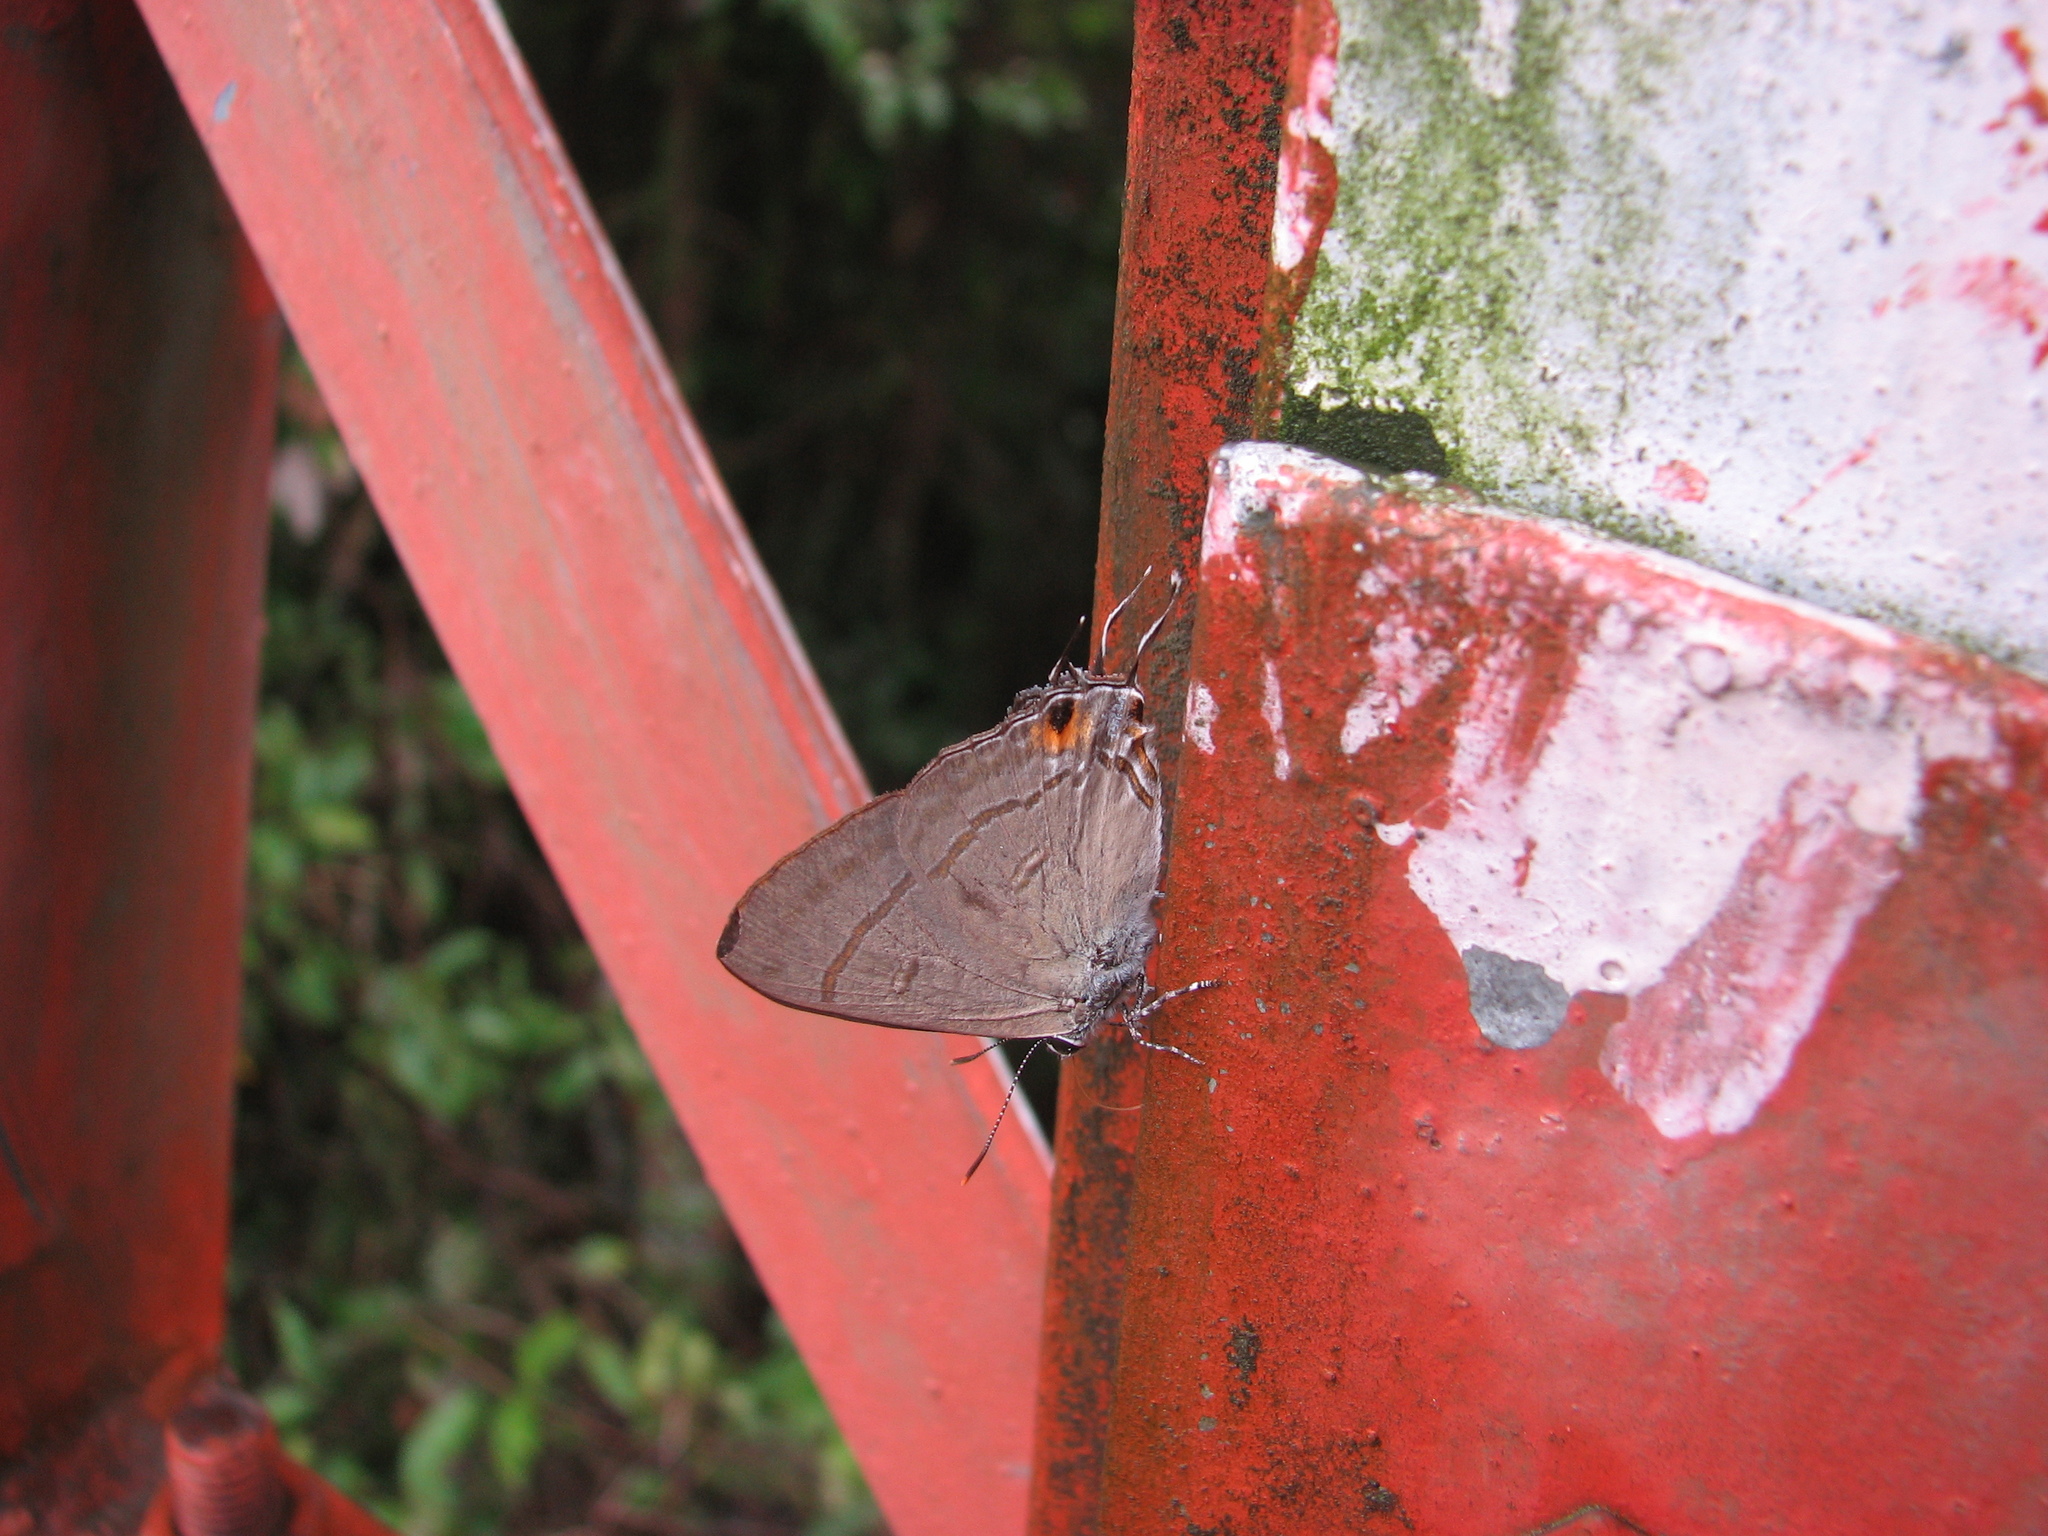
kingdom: Animalia
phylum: Arthropoda
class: Insecta
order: Lepidoptera
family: Lycaenidae
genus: Hypolycaena
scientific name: Hypolycaena erylus
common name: Common tit
